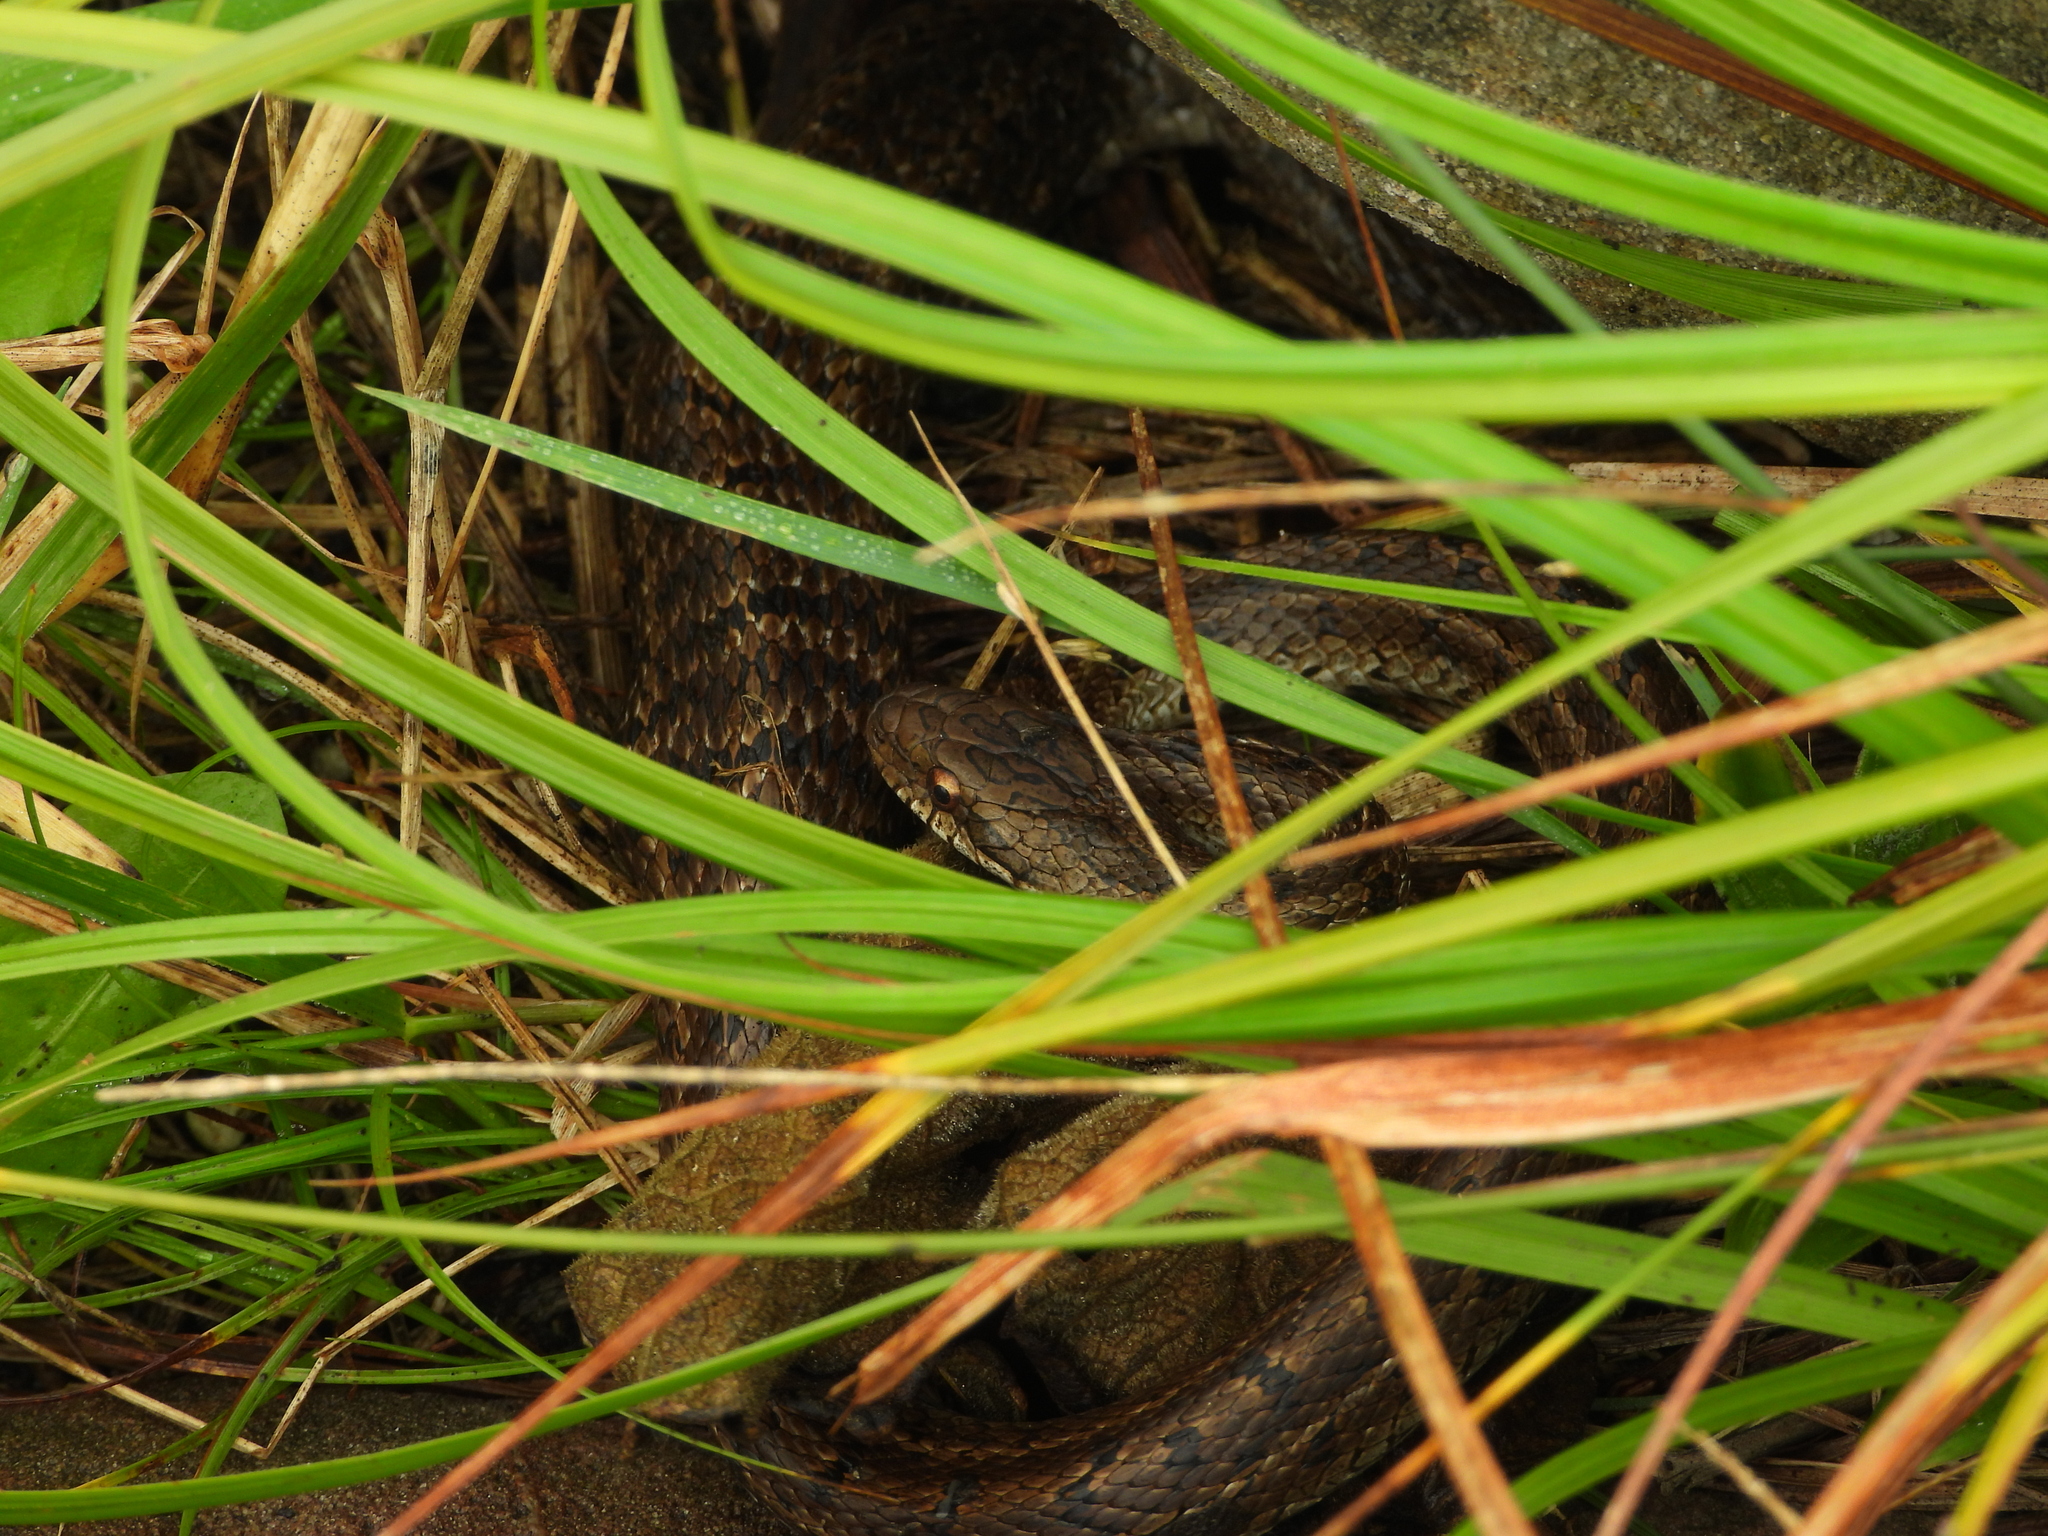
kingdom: Animalia
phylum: Chordata
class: Squamata
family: Colubridae
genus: Elaphe
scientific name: Elaphe dione
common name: Dione ratsnake
